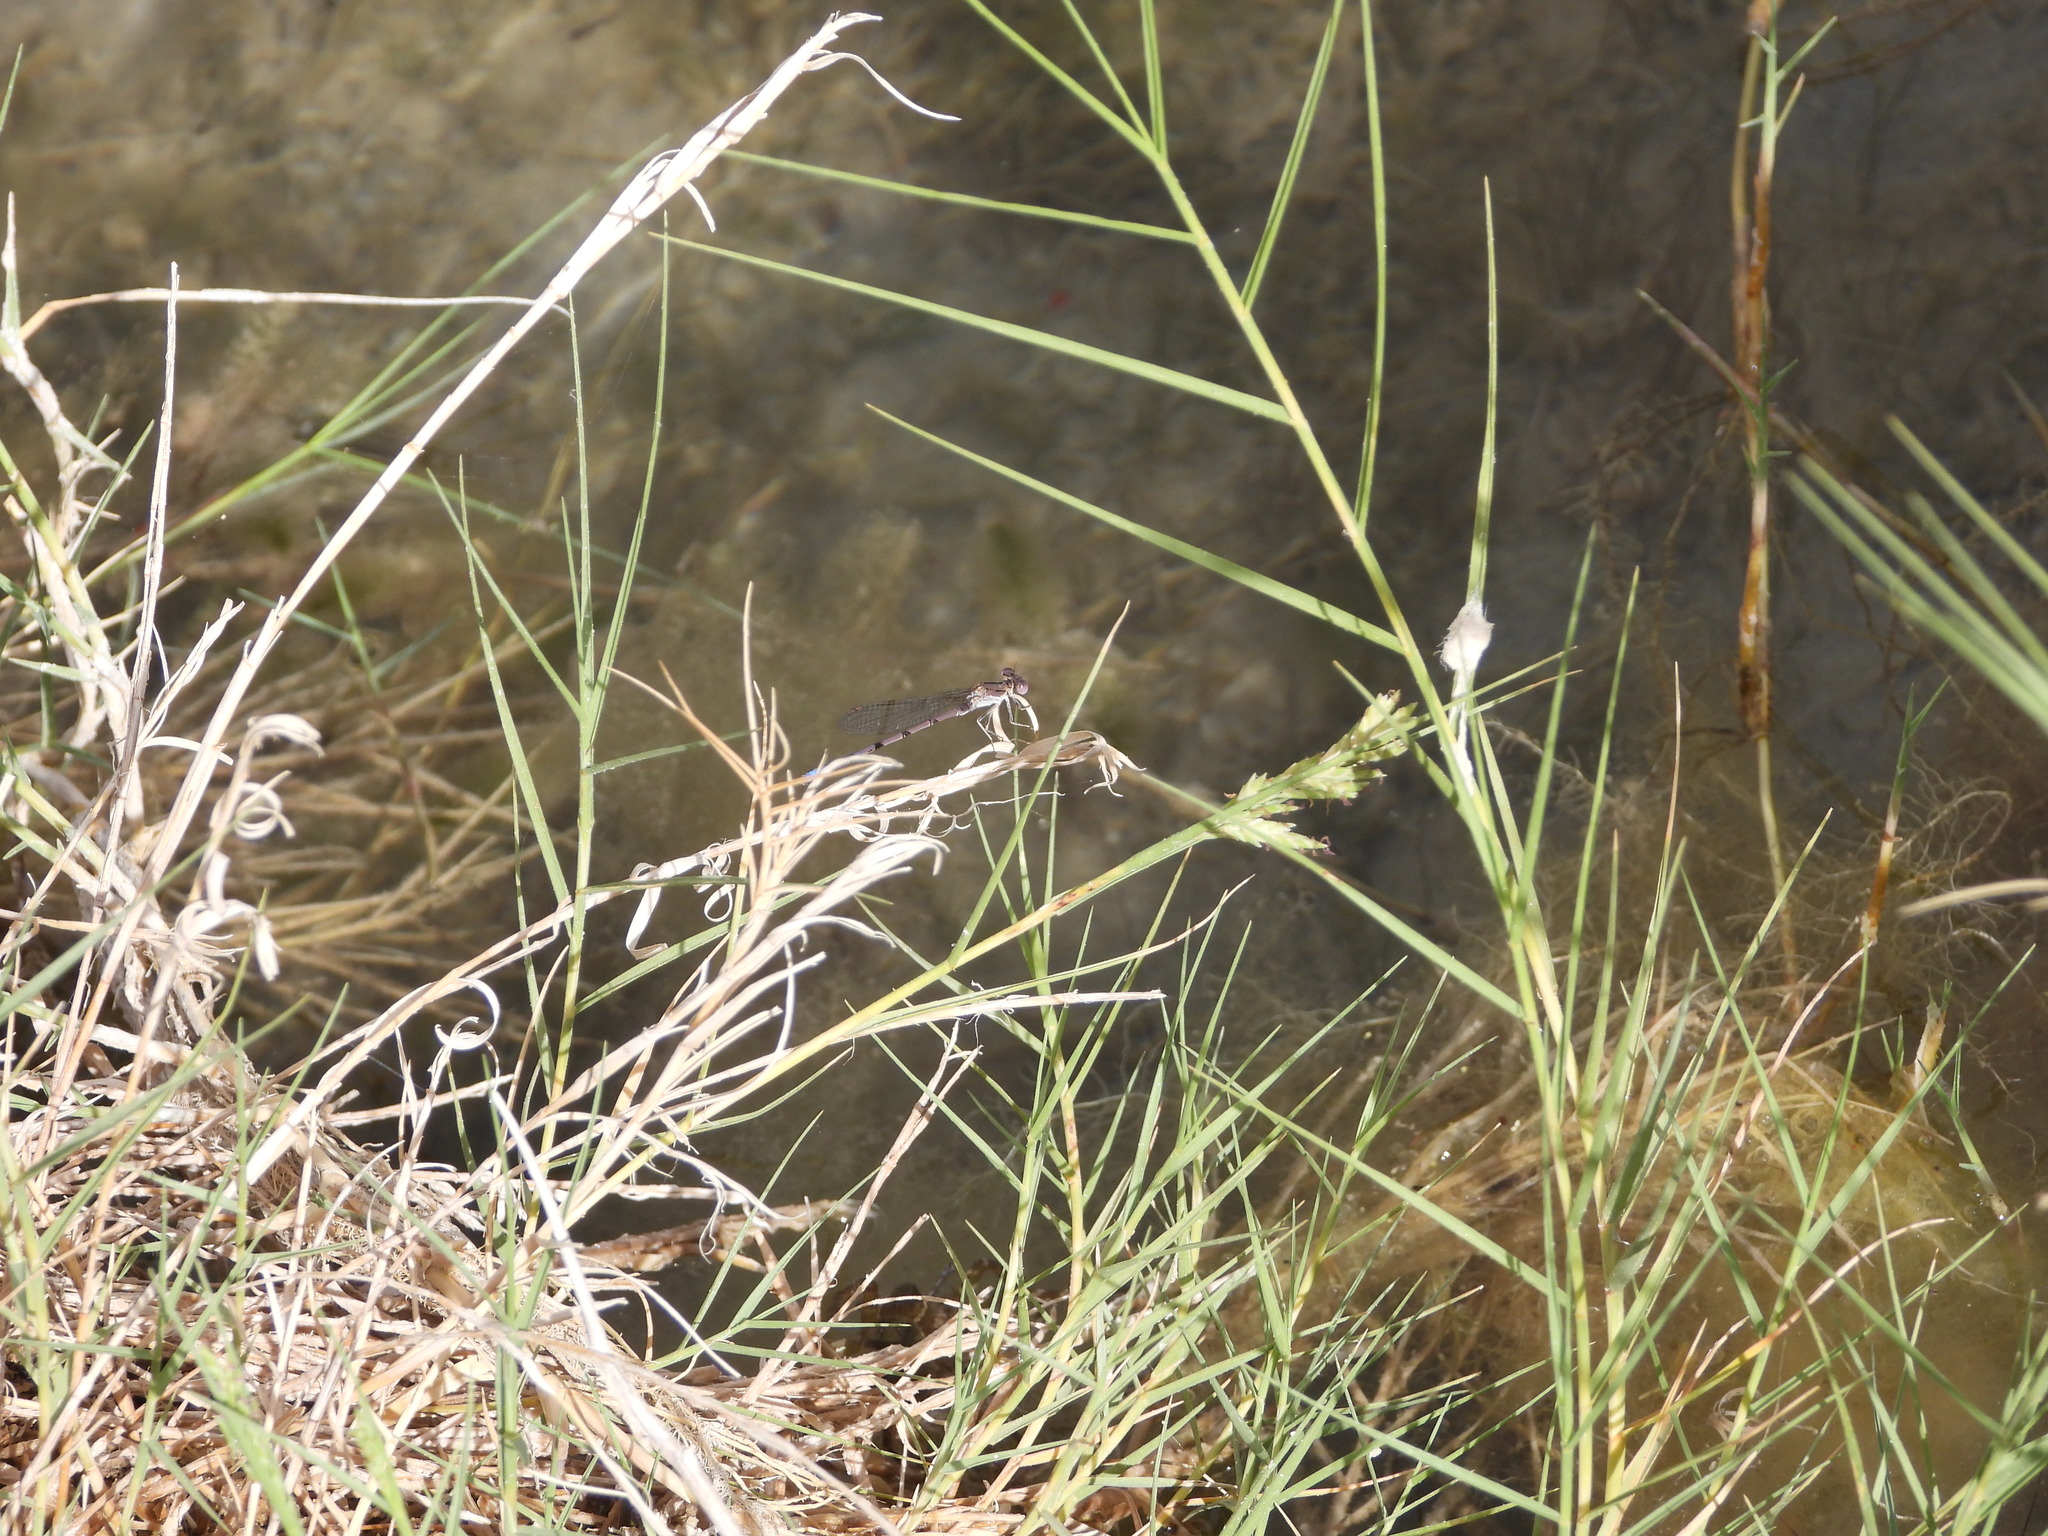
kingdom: Animalia
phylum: Arthropoda
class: Insecta
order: Odonata
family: Coenagrionidae
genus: Argia
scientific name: Argia hinei
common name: Lavender dancer
